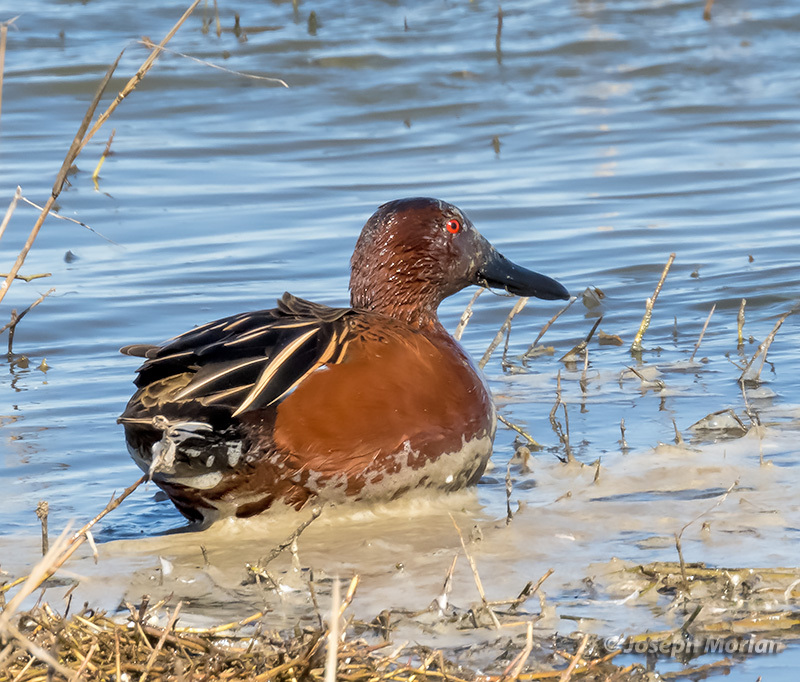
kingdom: Animalia
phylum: Chordata
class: Aves
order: Anseriformes
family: Anatidae
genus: Spatula
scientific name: Spatula cyanoptera
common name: Cinnamon teal
